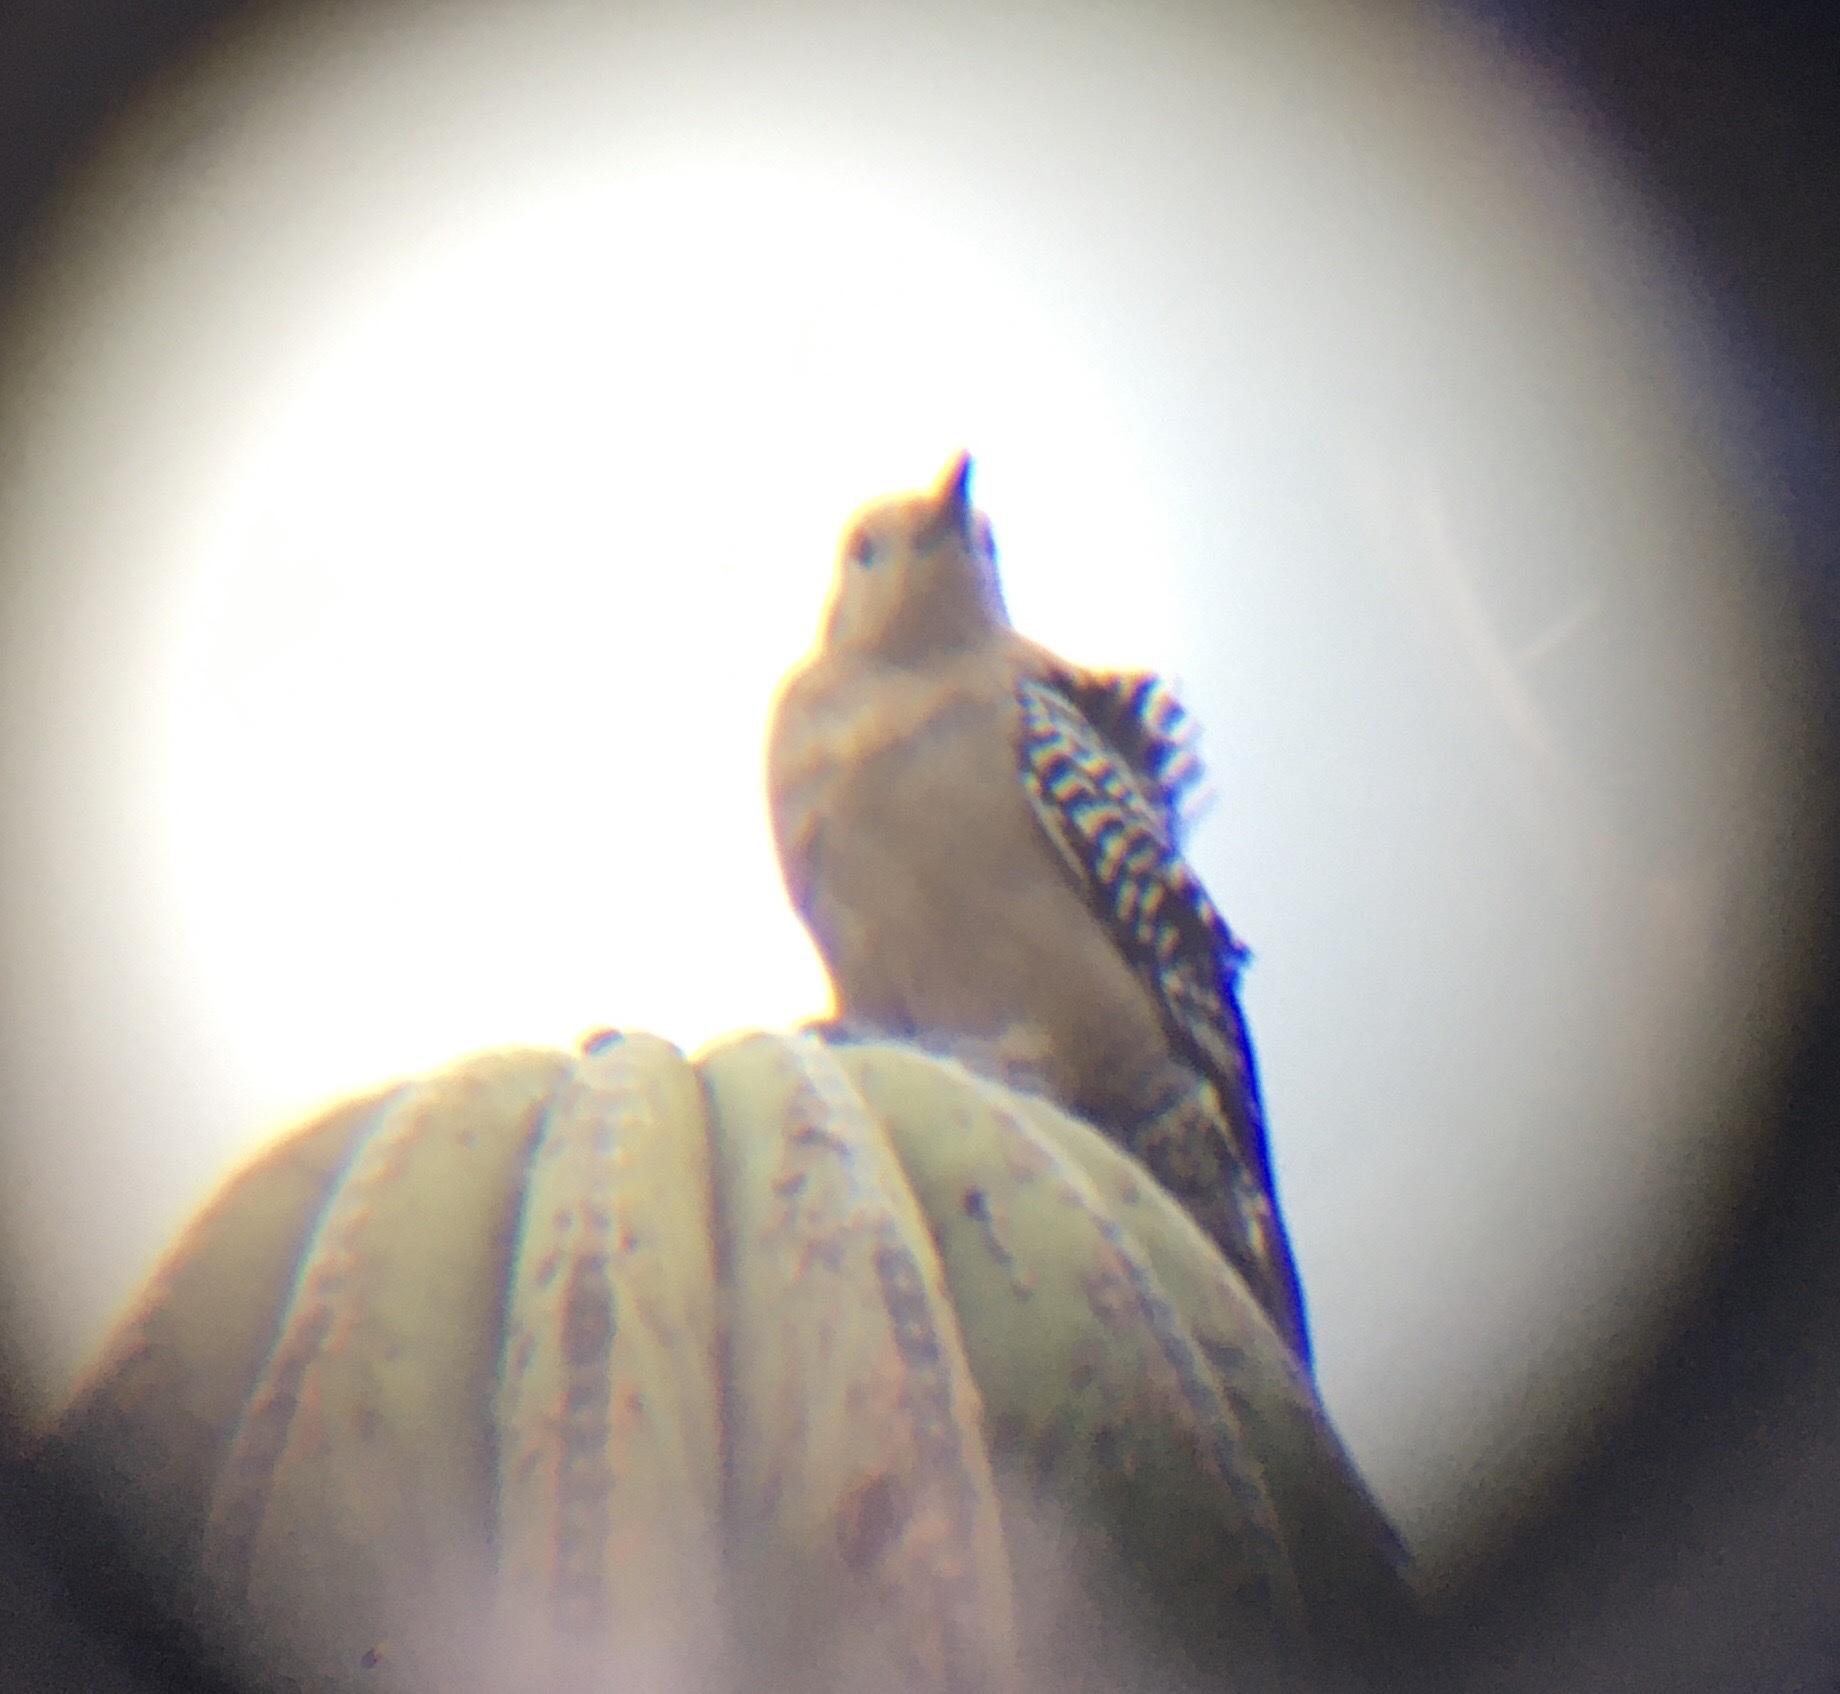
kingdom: Animalia
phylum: Chordata
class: Aves
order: Piciformes
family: Picidae
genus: Melanerpes
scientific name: Melanerpes uropygialis
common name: Gila woodpecker
